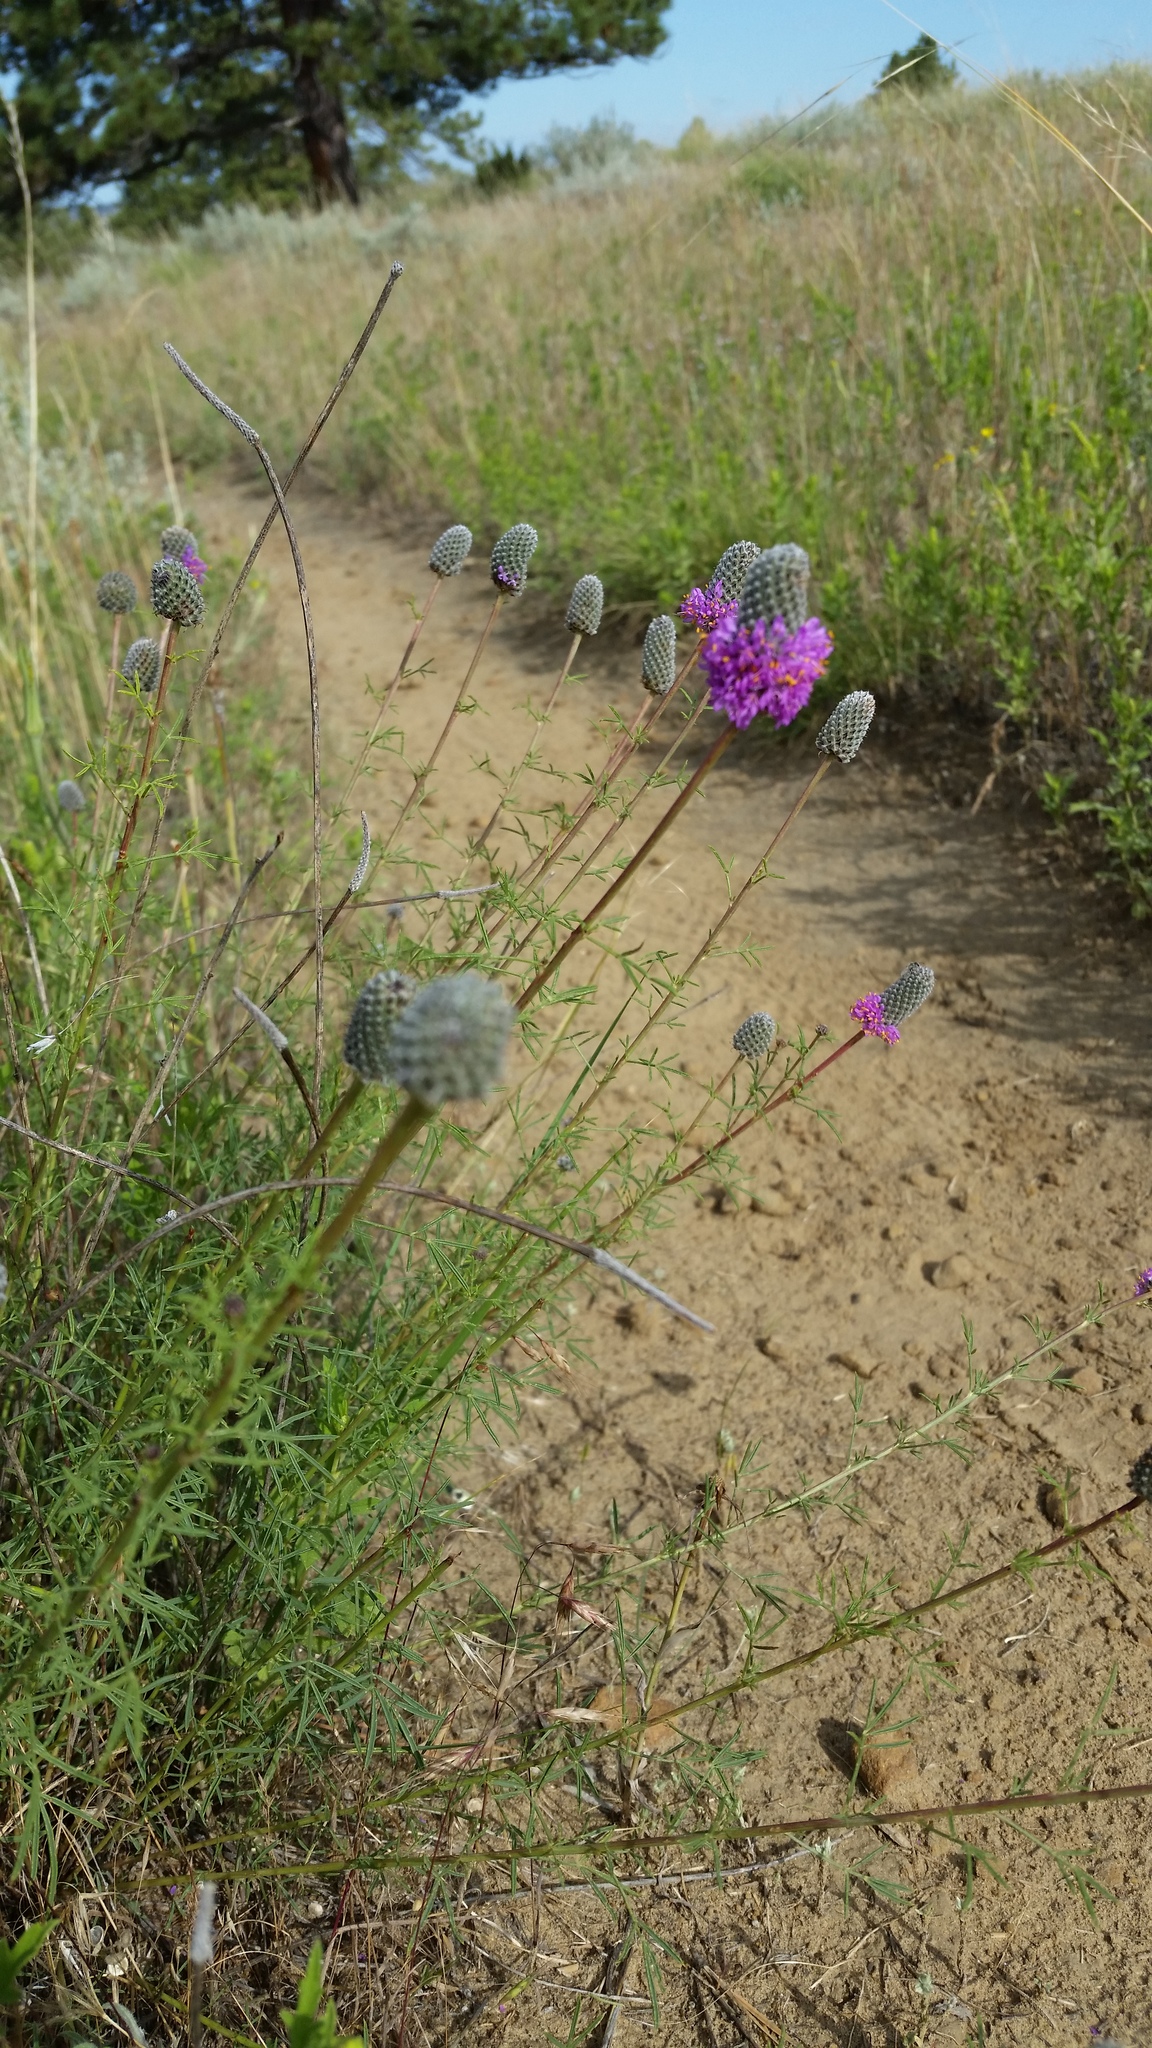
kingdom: Plantae
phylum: Tracheophyta
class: Magnoliopsida
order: Fabales
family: Fabaceae
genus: Dalea
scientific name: Dalea purpurea
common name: Purple prairie-clover
